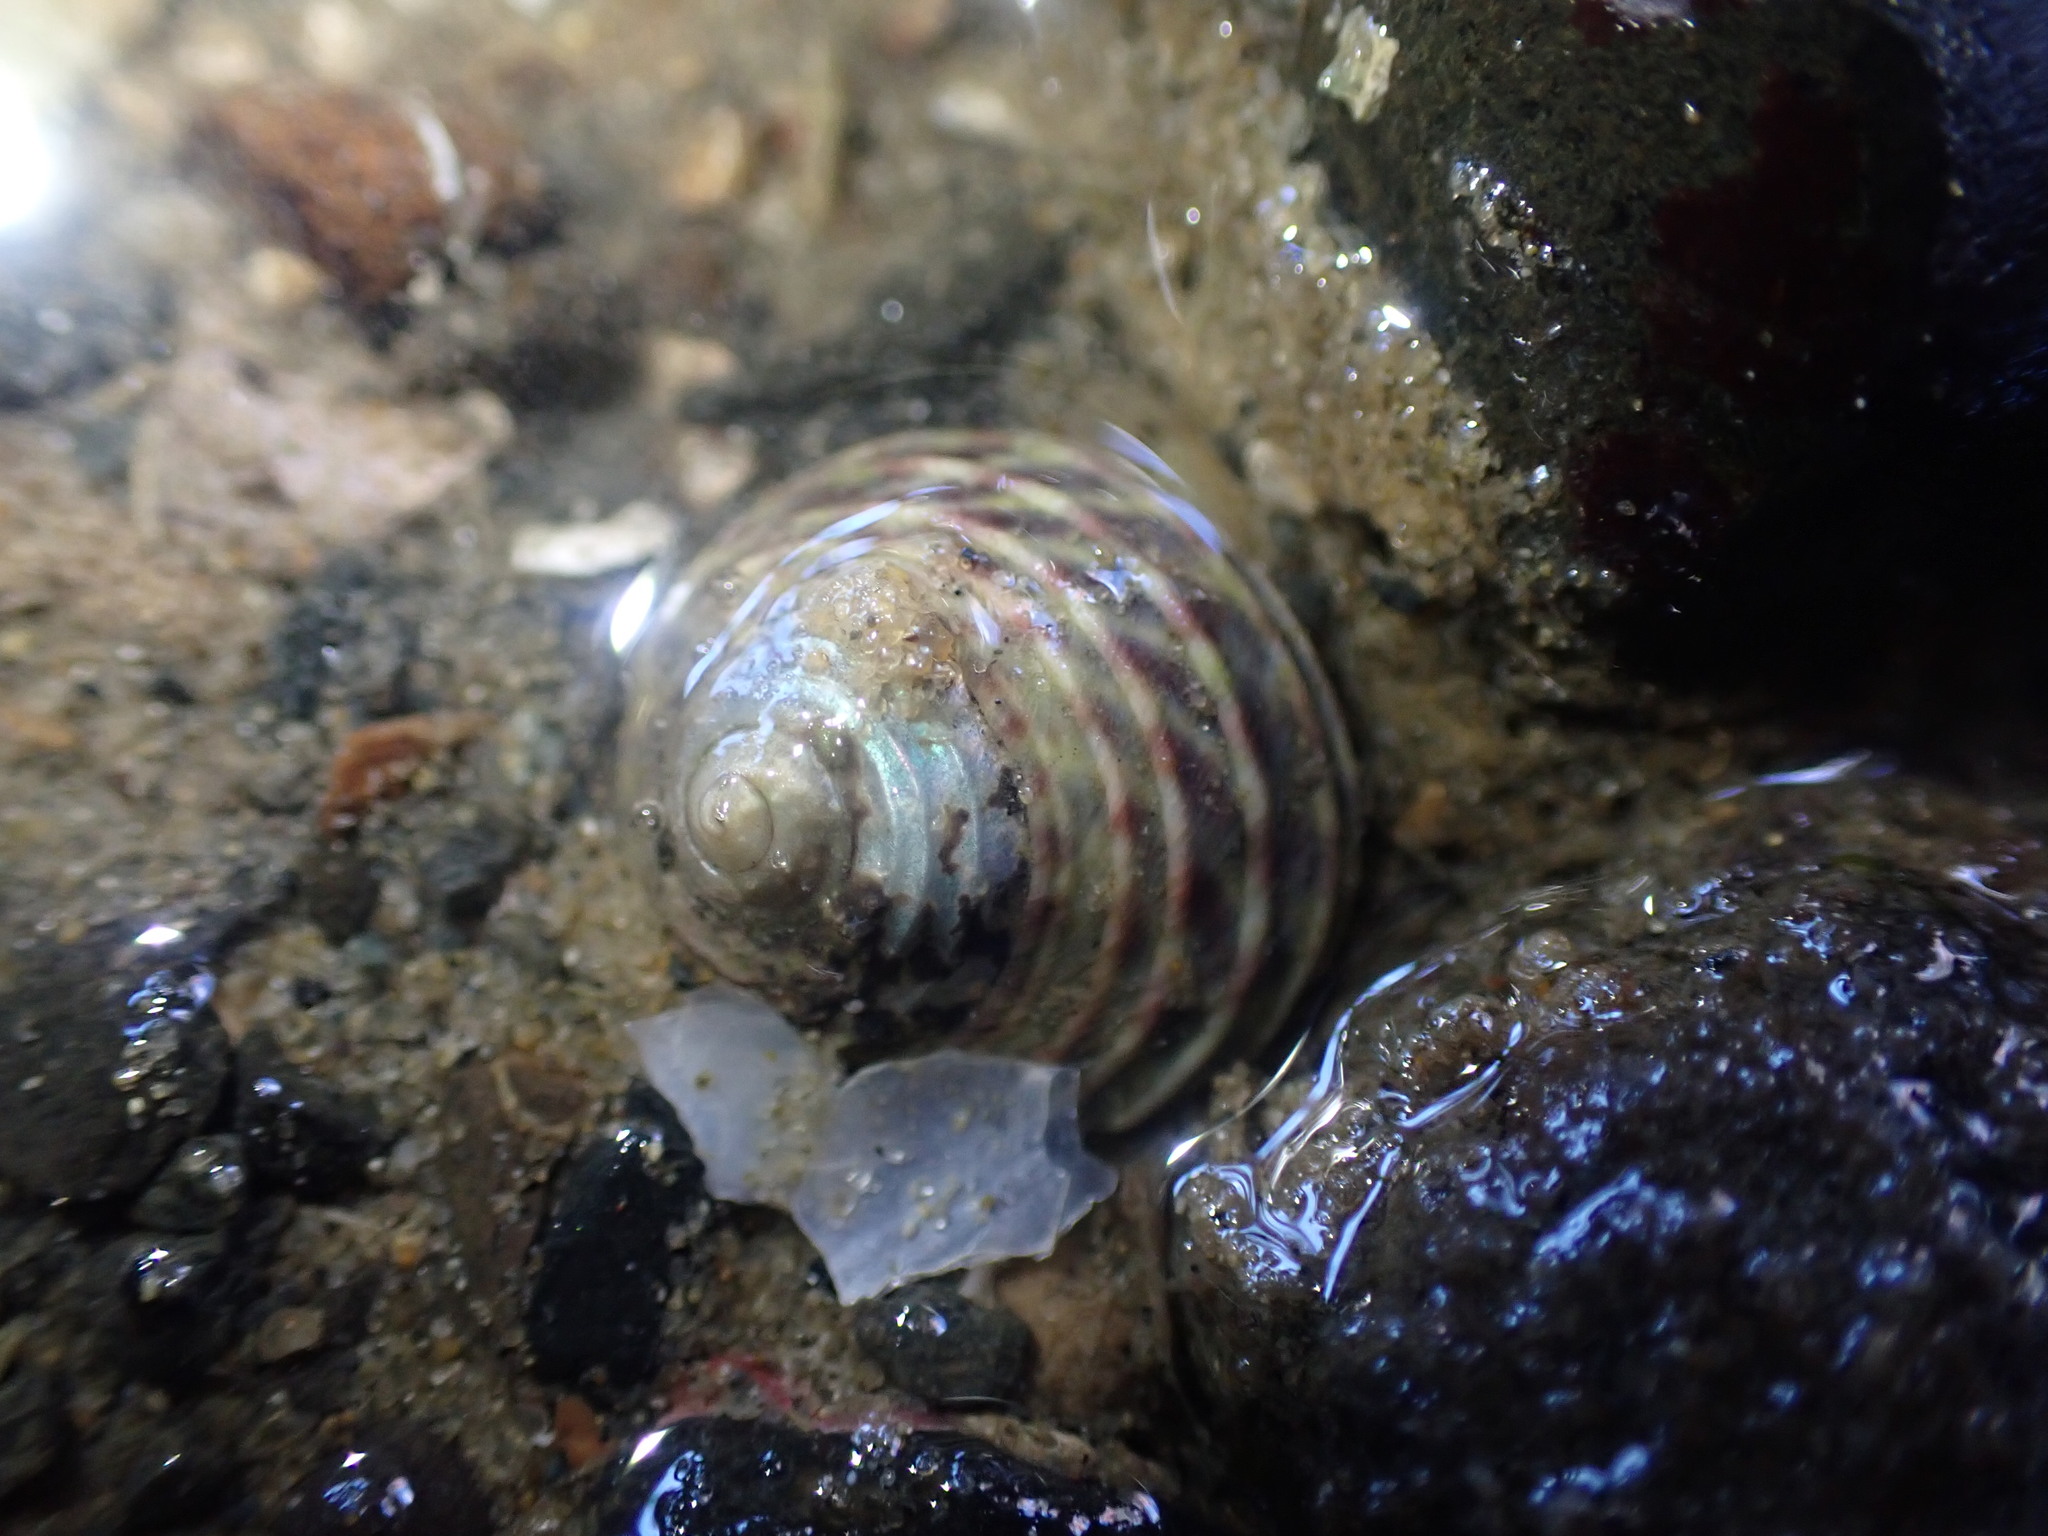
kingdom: Animalia
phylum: Mollusca
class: Gastropoda
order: Trochida
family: Trochidae
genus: Diloma
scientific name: Diloma subrostratum
